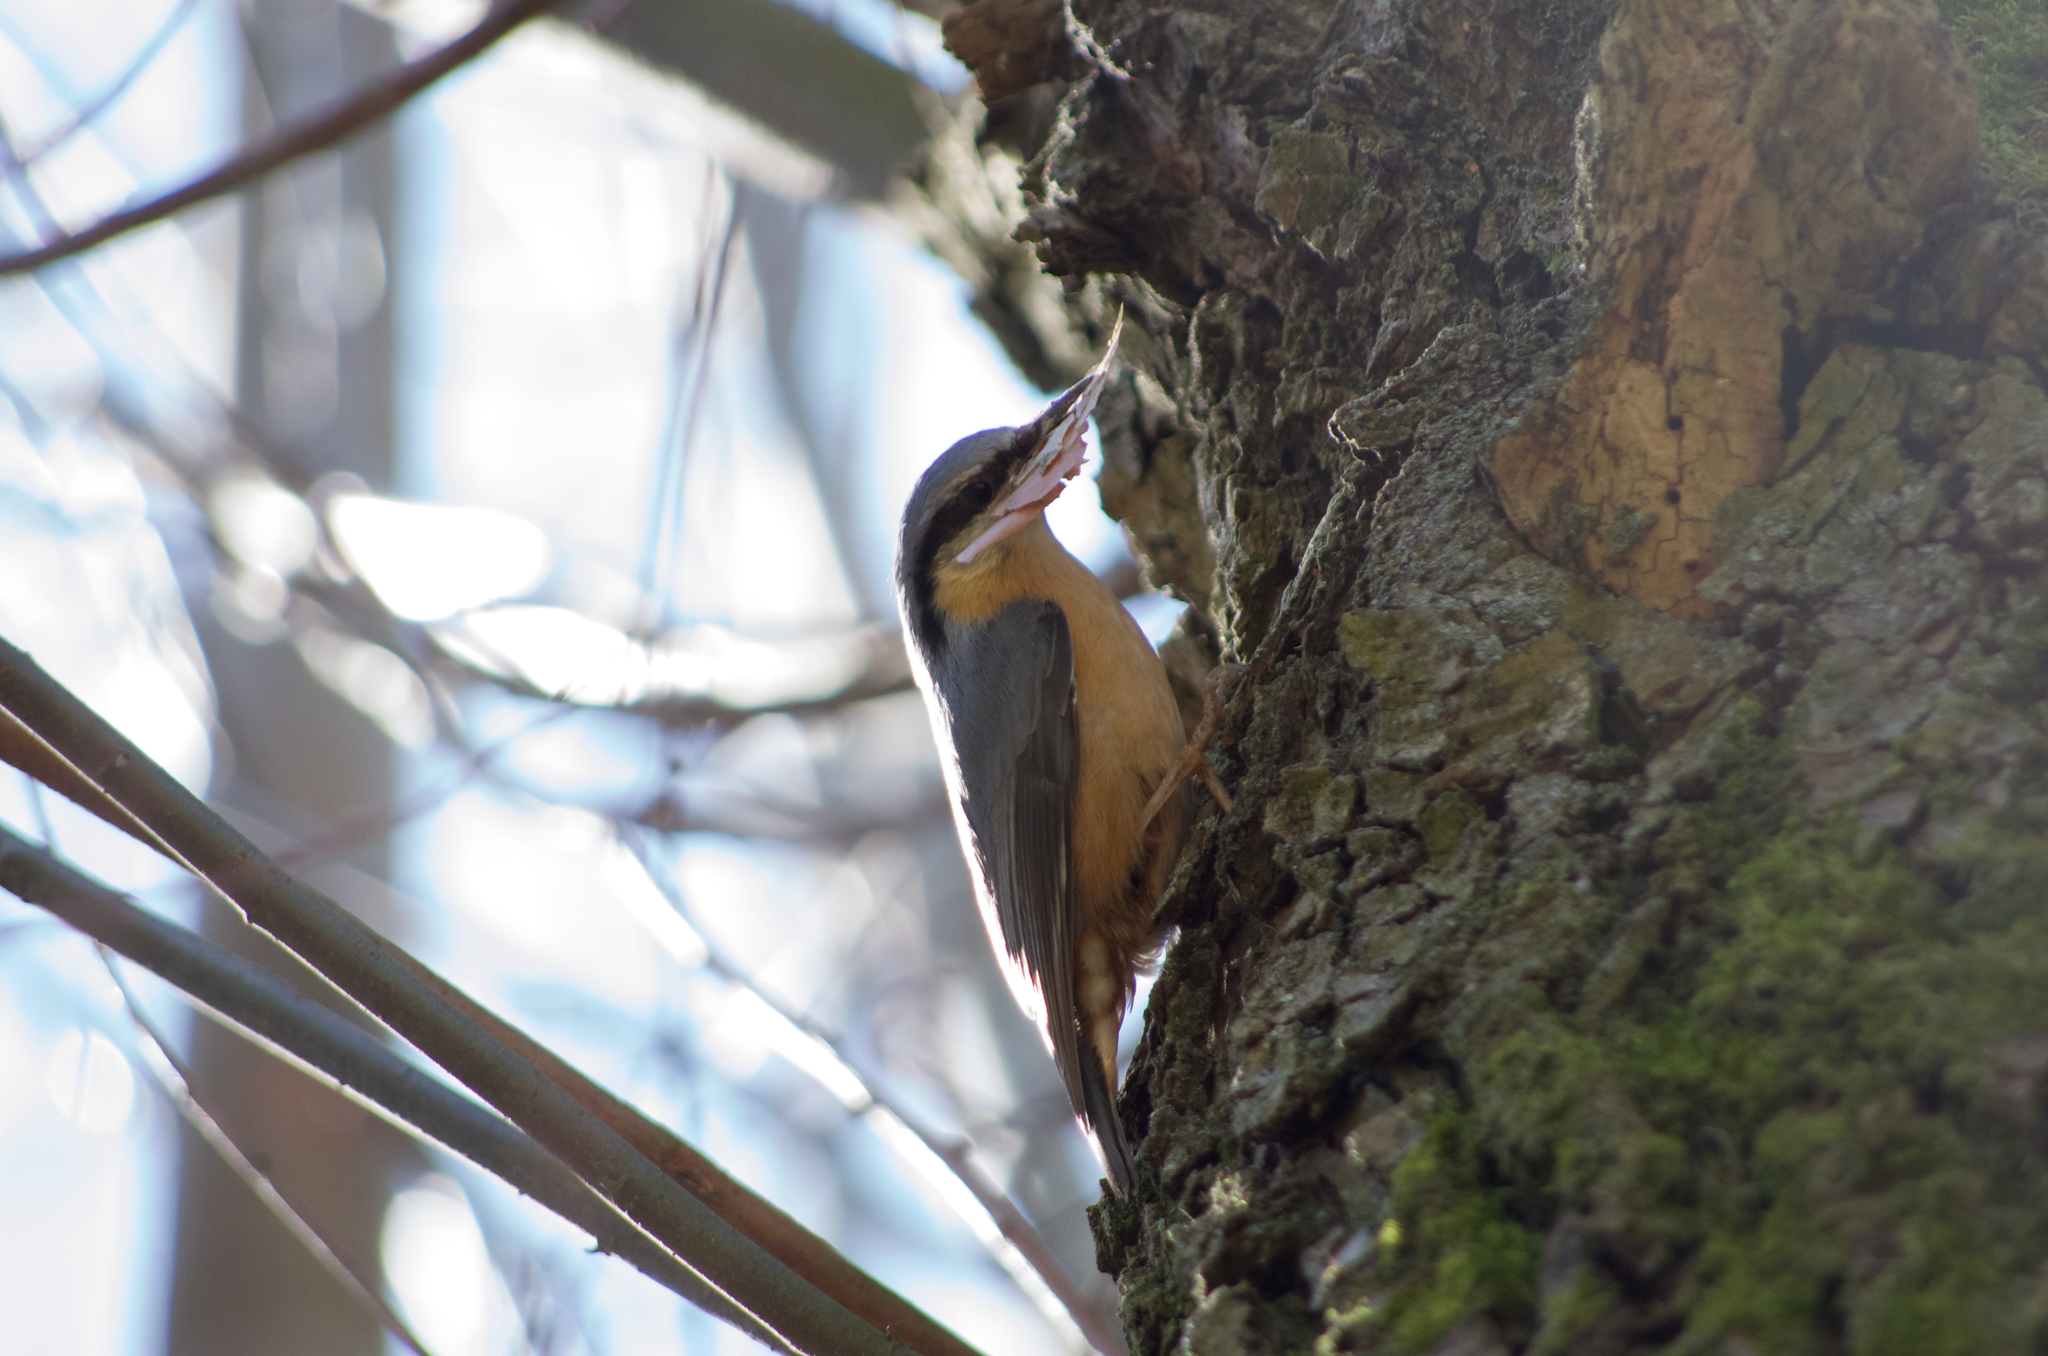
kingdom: Animalia
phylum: Chordata
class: Aves
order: Passeriformes
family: Sittidae
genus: Sitta
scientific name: Sitta europaea
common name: Eurasian nuthatch
